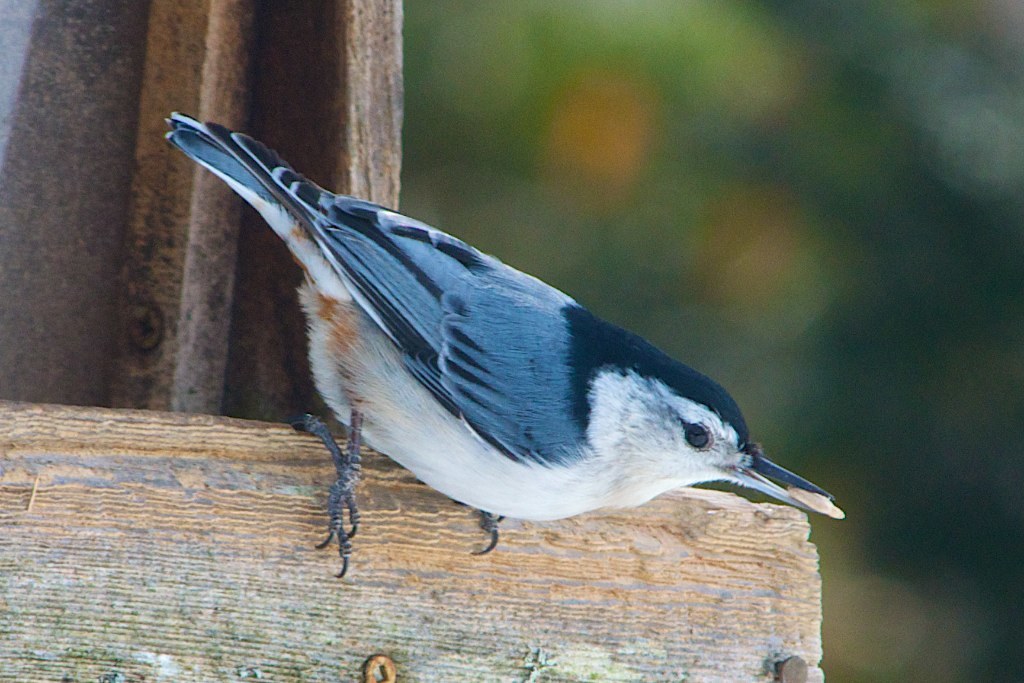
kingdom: Animalia
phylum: Chordata
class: Aves
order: Passeriformes
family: Sittidae
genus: Sitta
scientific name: Sitta carolinensis
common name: White-breasted nuthatch
